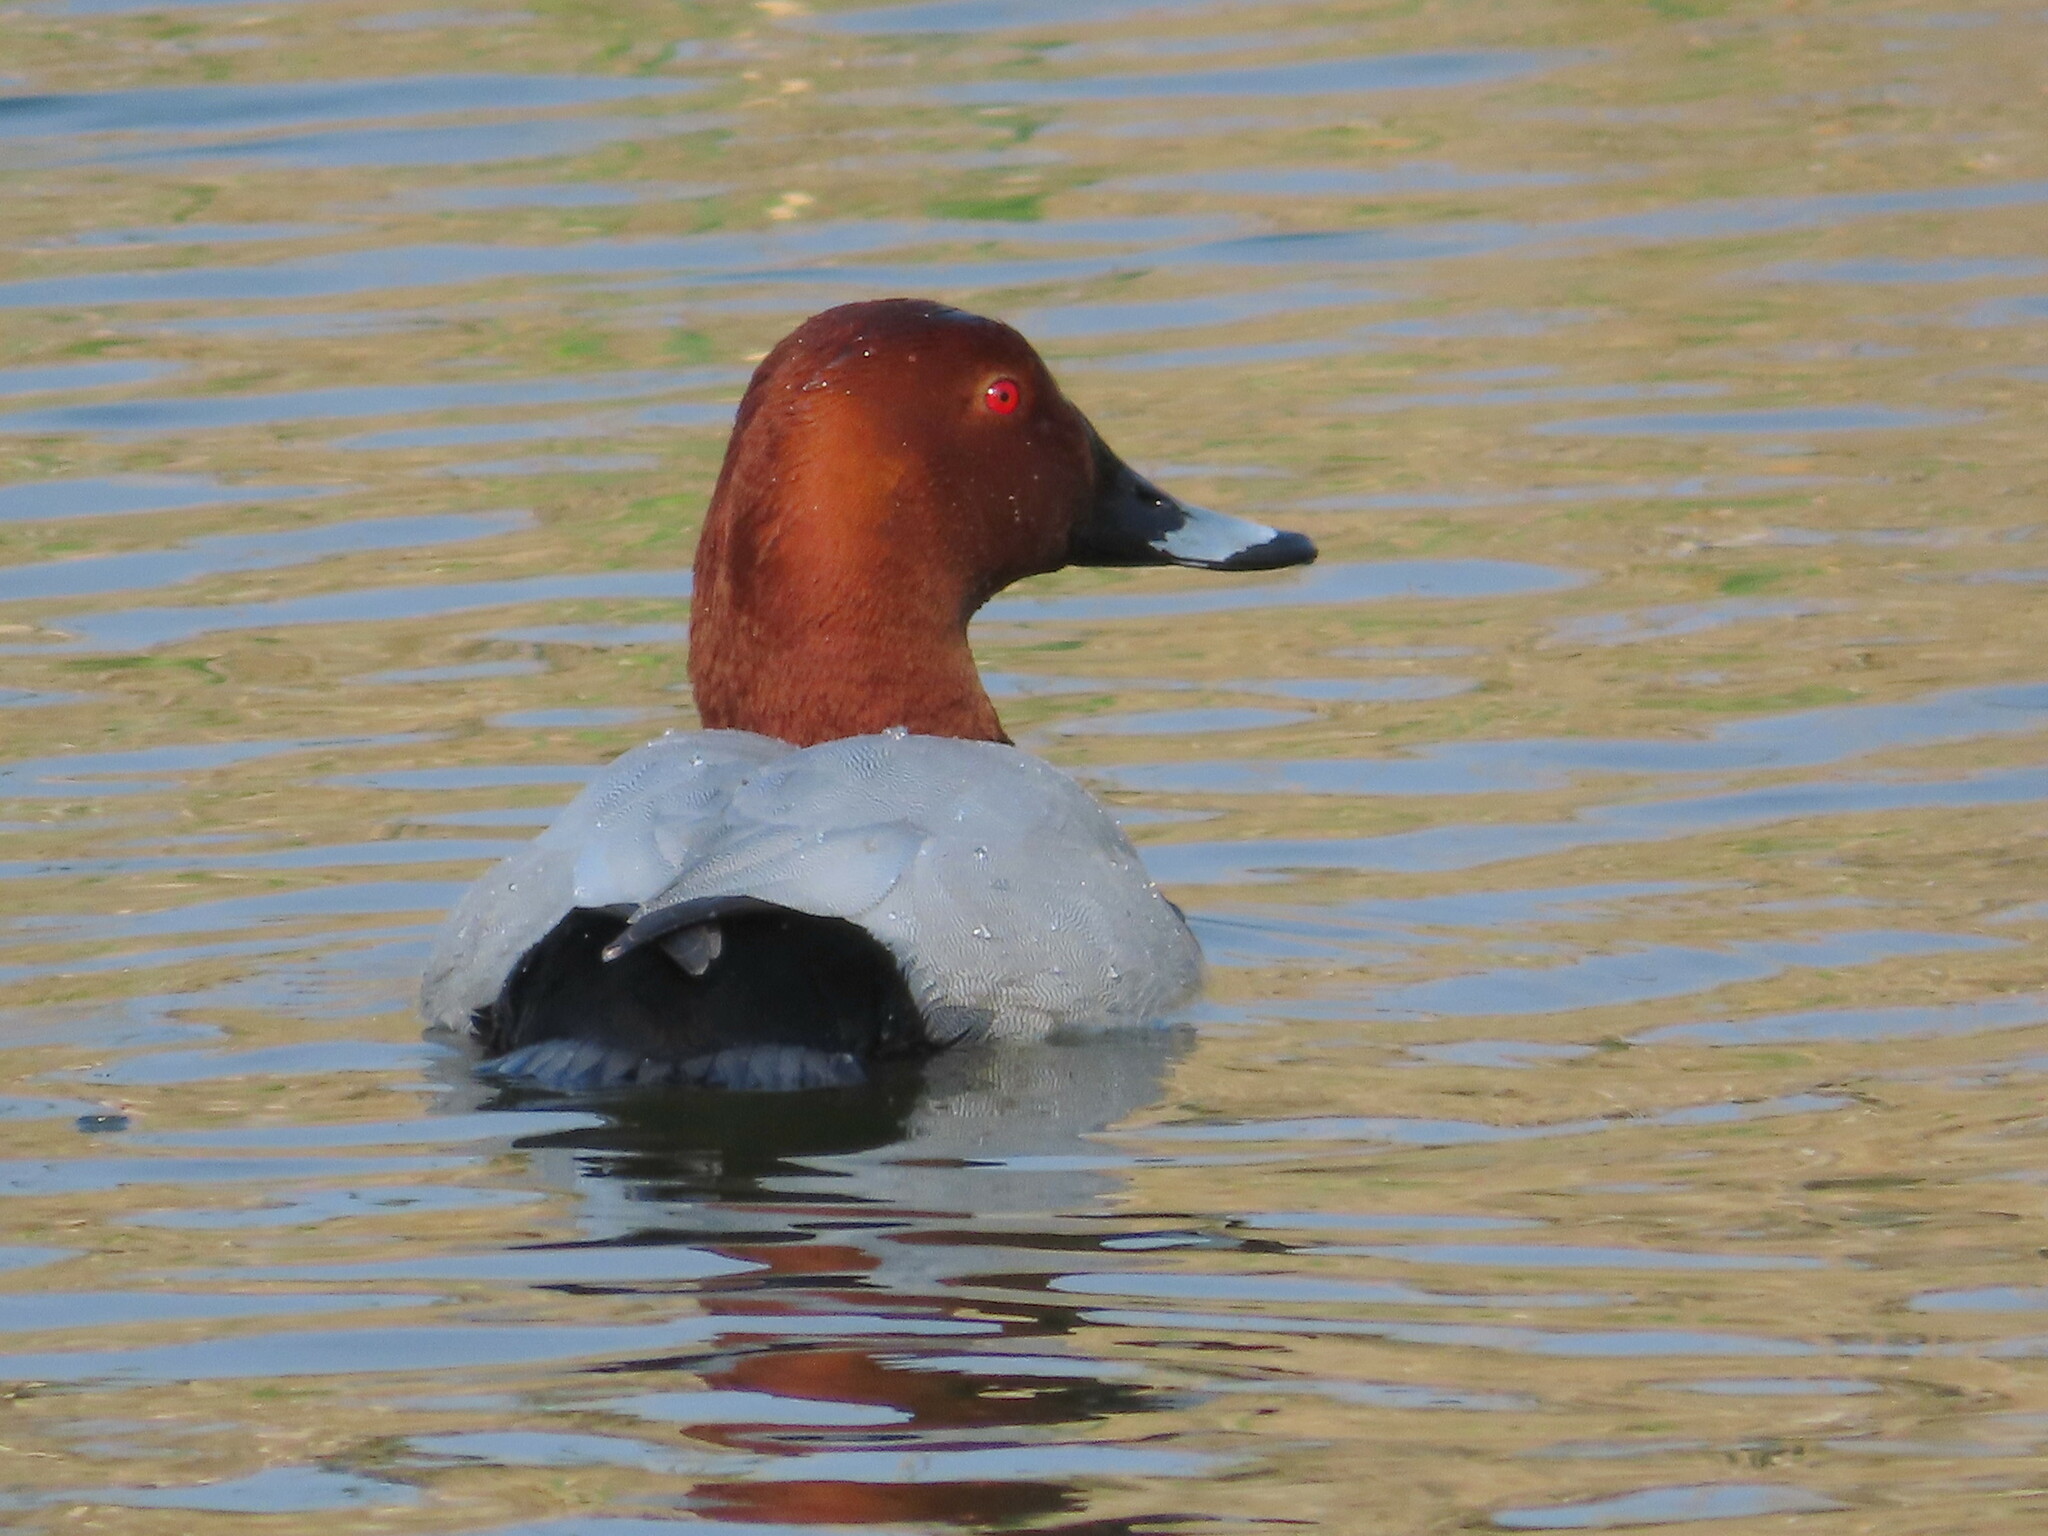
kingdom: Animalia
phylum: Chordata
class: Aves
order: Anseriformes
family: Anatidae
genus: Aythya
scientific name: Aythya ferina
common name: Common pochard
